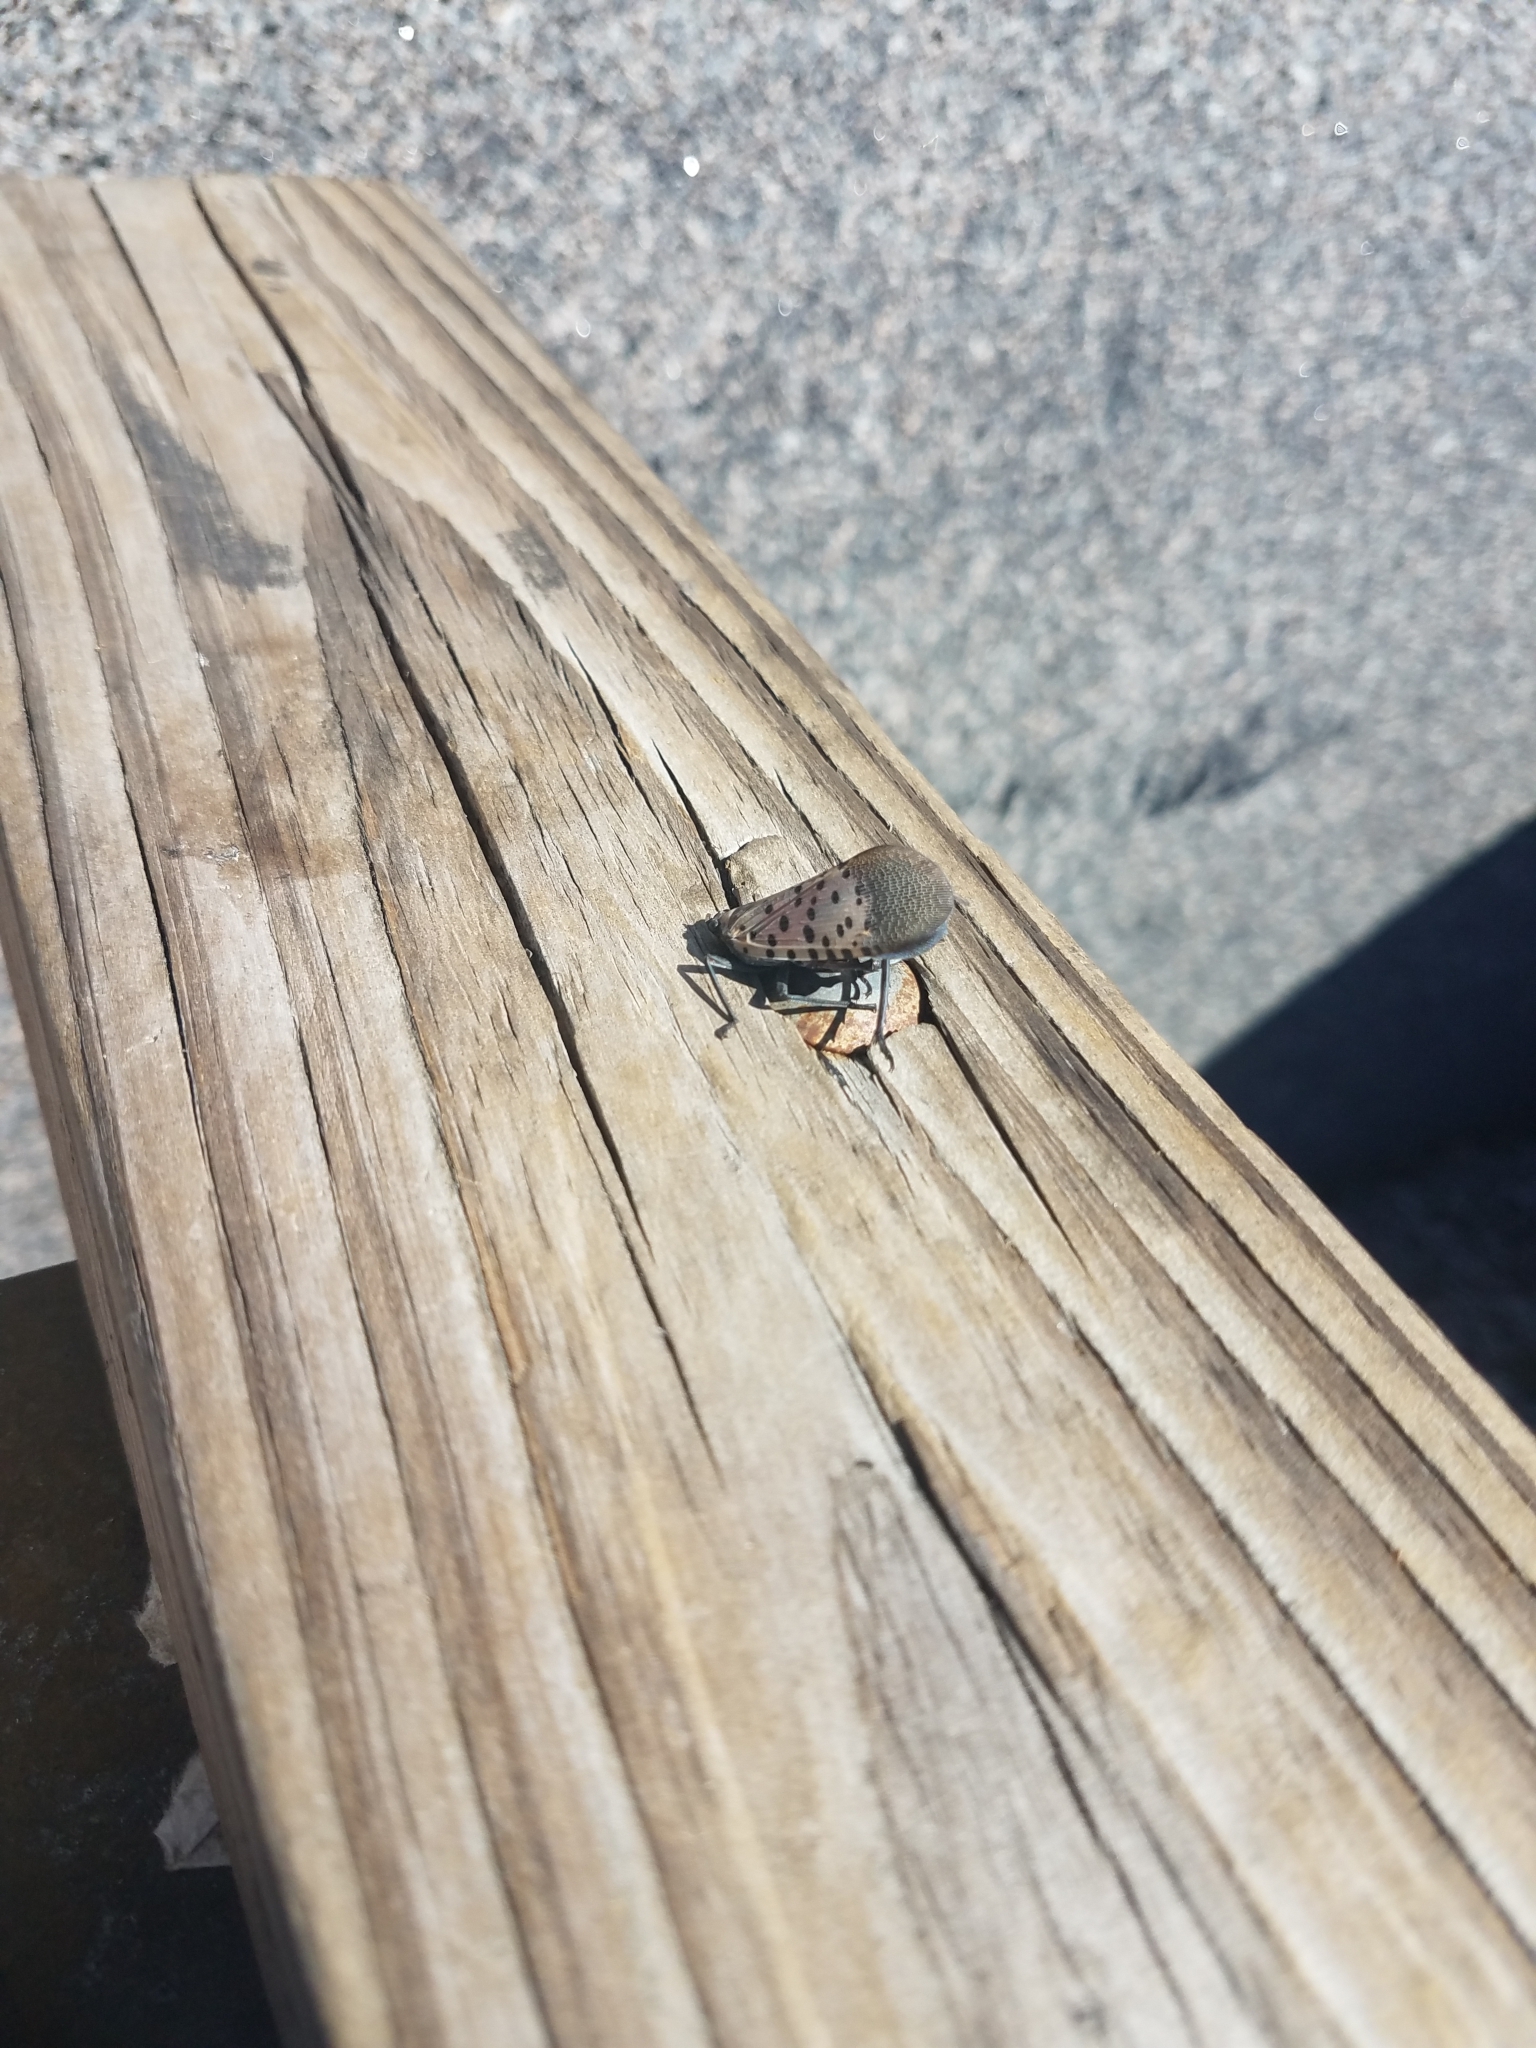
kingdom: Animalia
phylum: Arthropoda
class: Insecta
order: Hemiptera
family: Fulgoridae
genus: Lycorma
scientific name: Lycorma delicatula
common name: Spotted lanternfly
